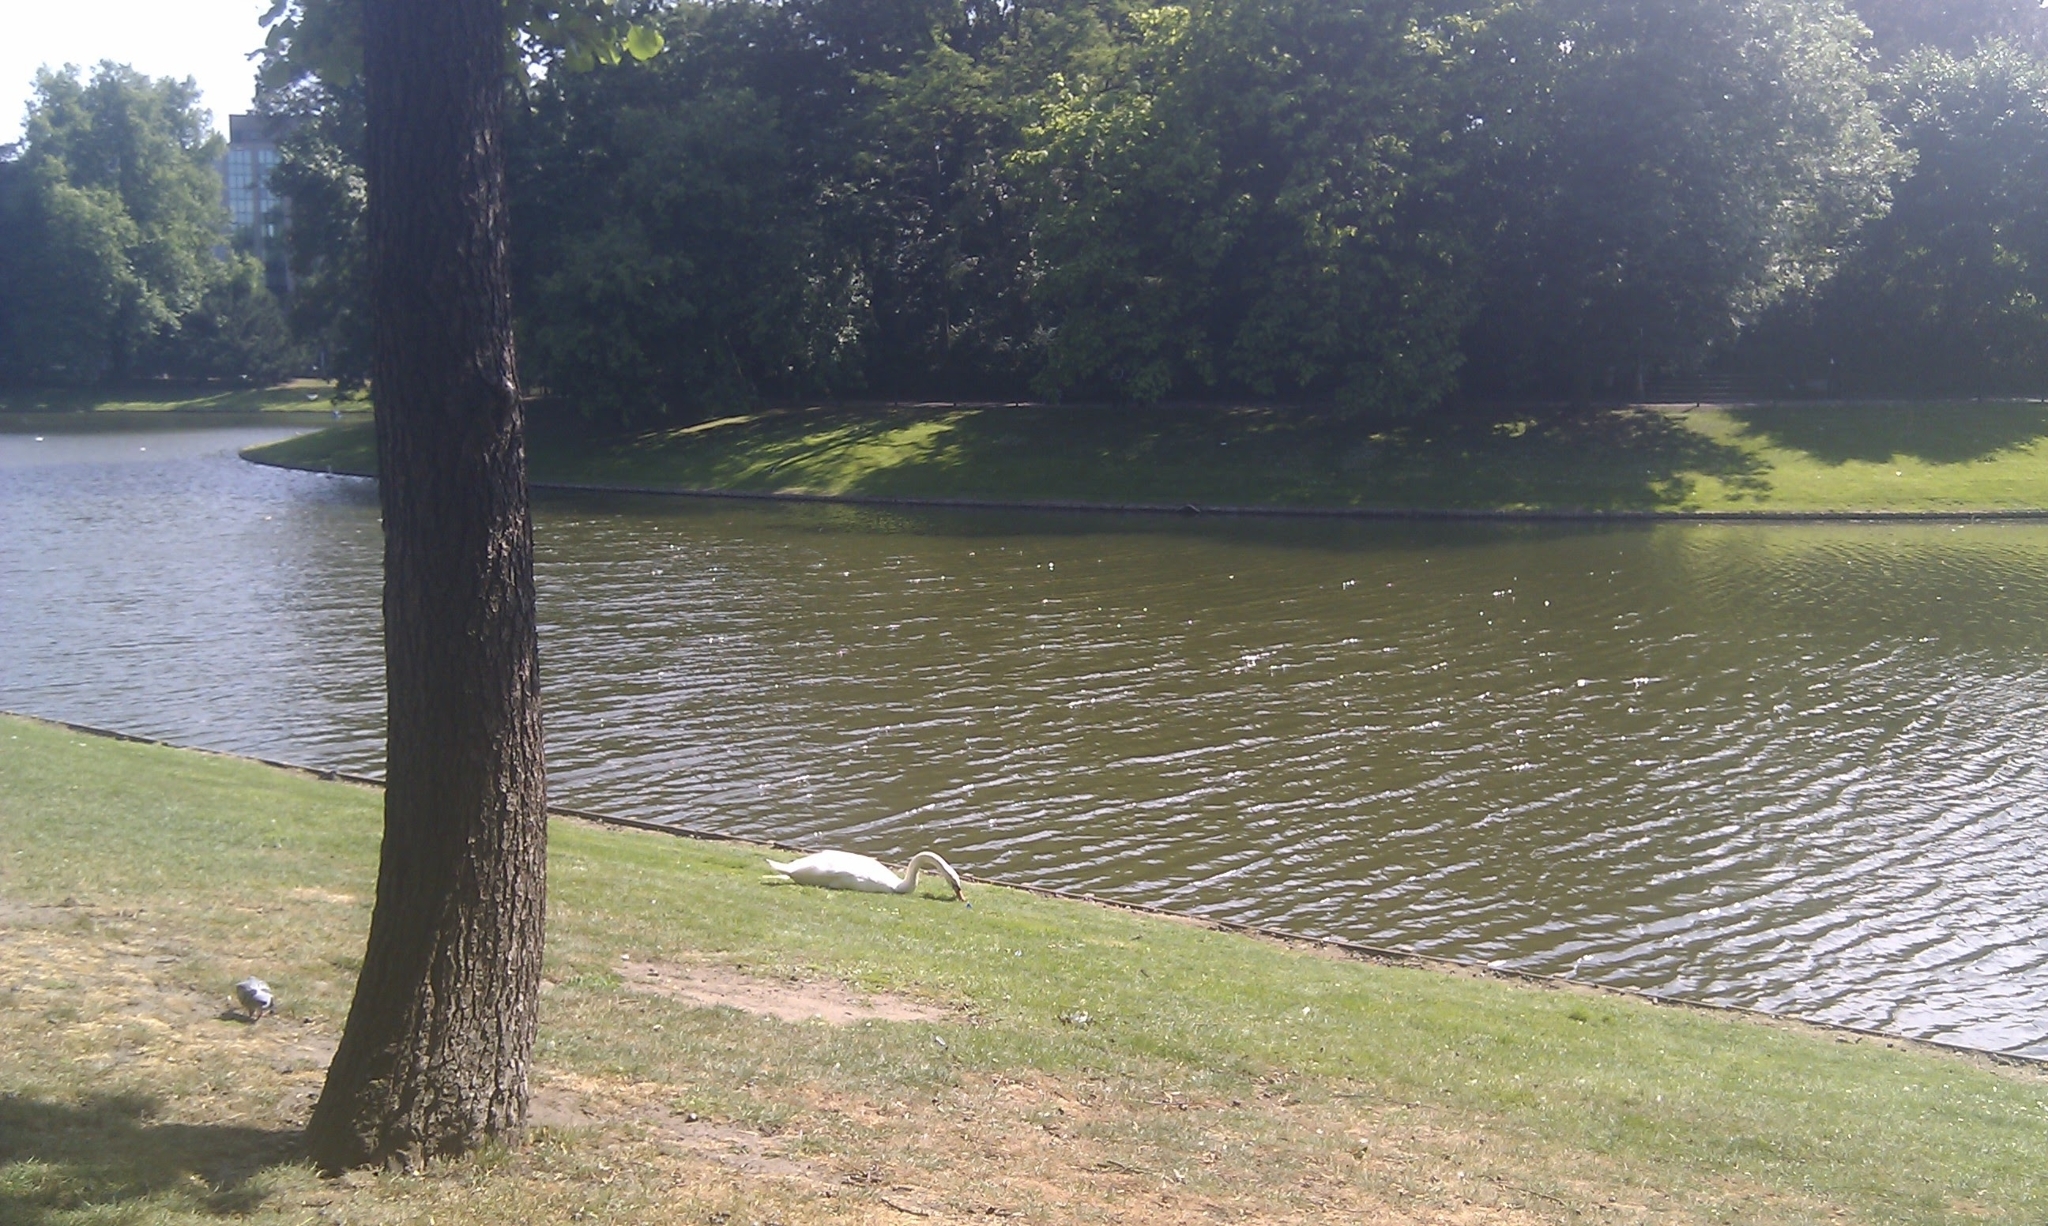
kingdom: Animalia
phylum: Chordata
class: Aves
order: Anseriformes
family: Anatidae
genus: Cygnus
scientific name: Cygnus olor
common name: Mute swan
